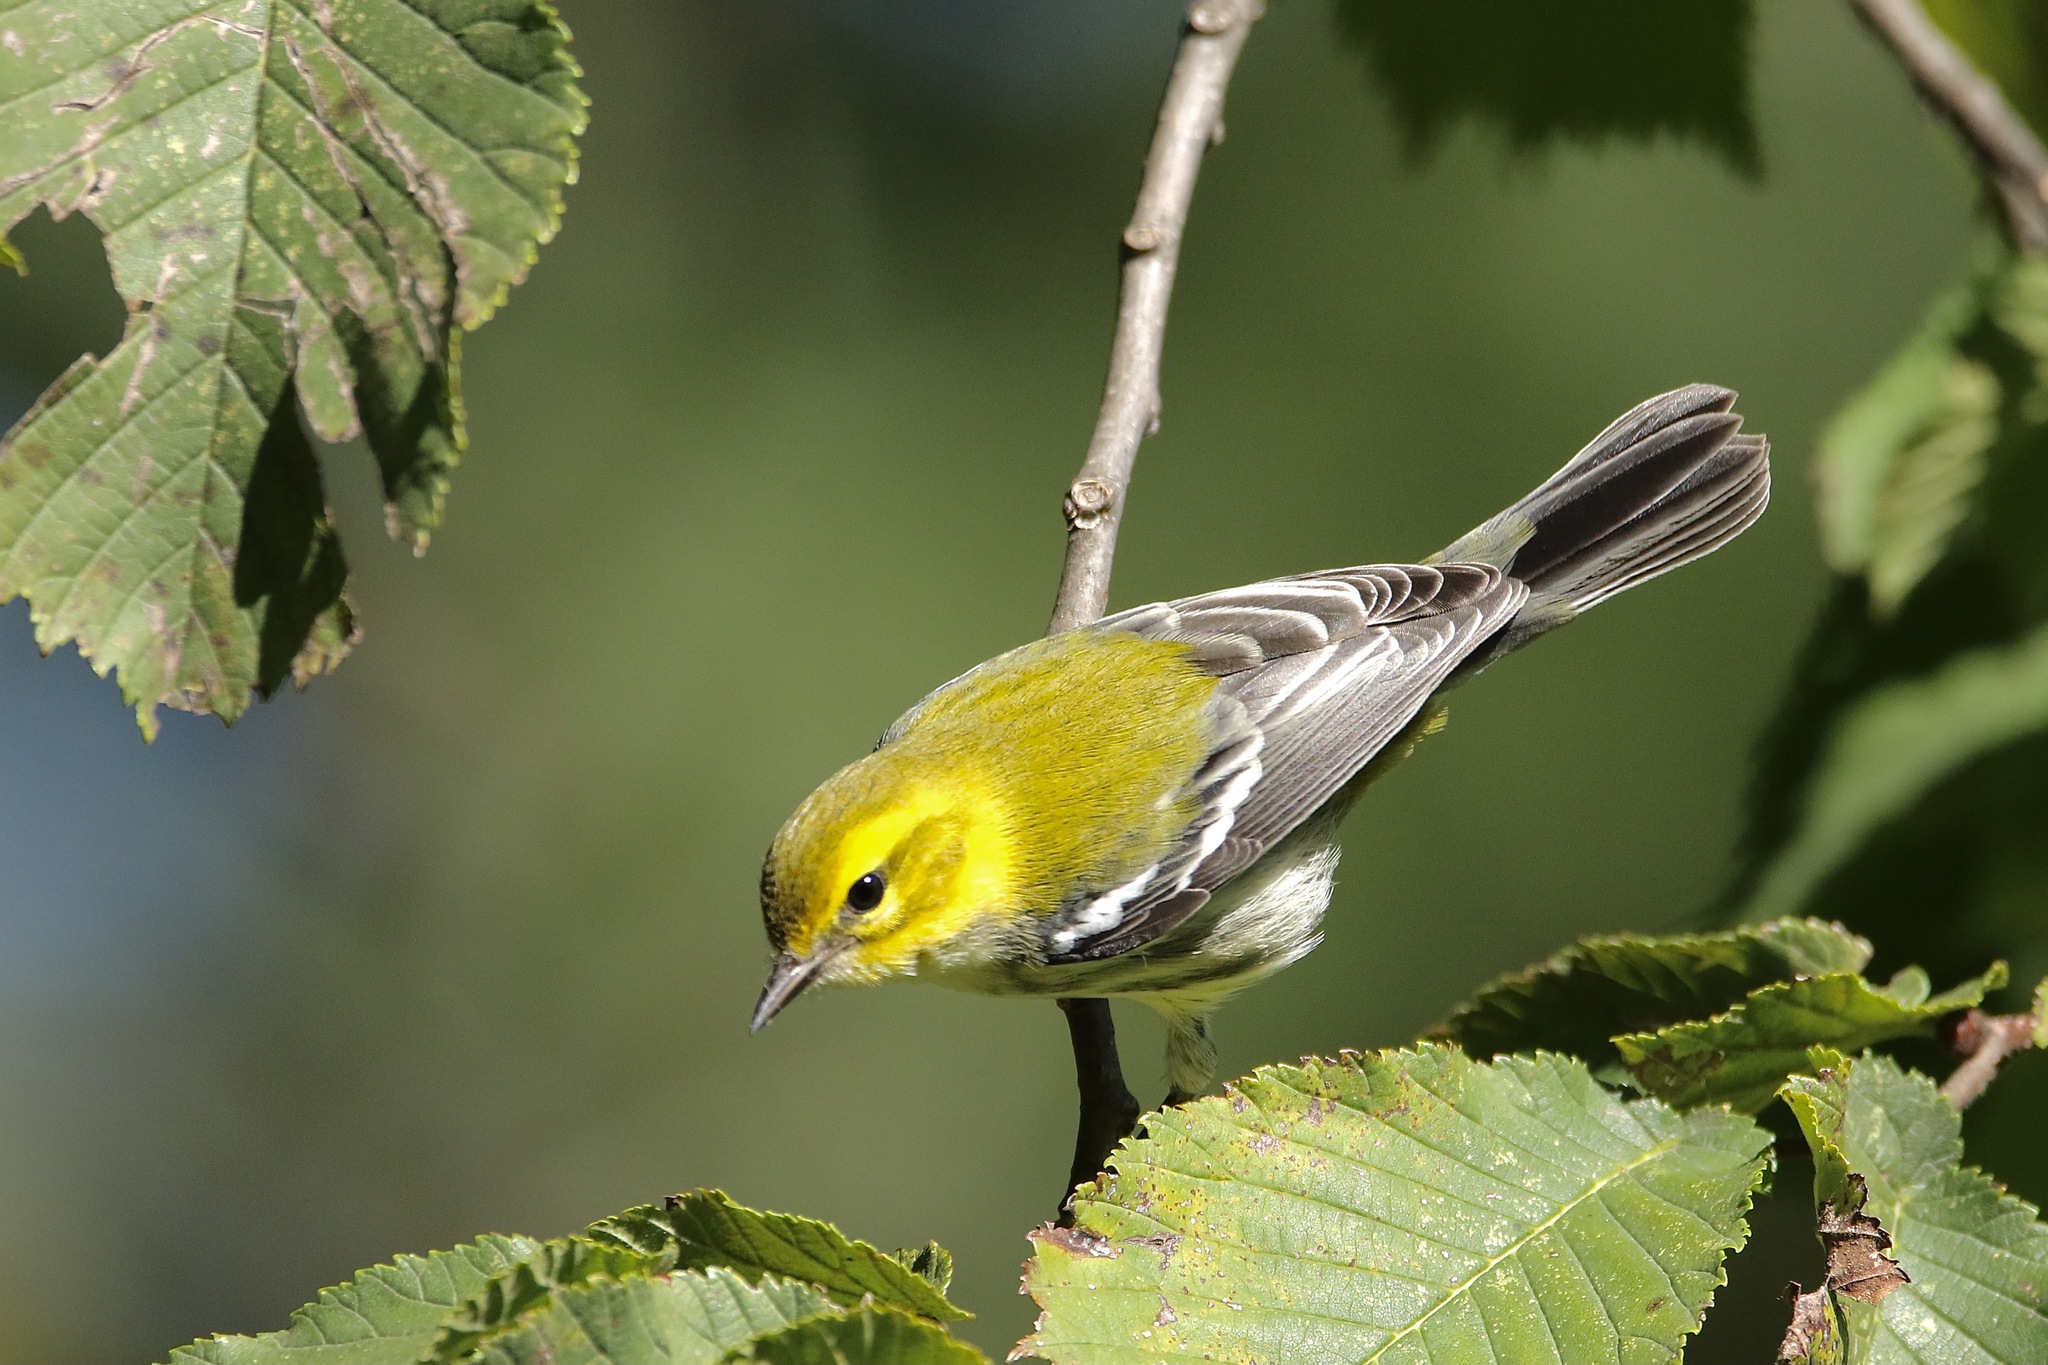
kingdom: Animalia
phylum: Chordata
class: Aves
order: Passeriformes
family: Parulidae
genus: Setophaga
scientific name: Setophaga virens
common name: Black-throated green warbler
